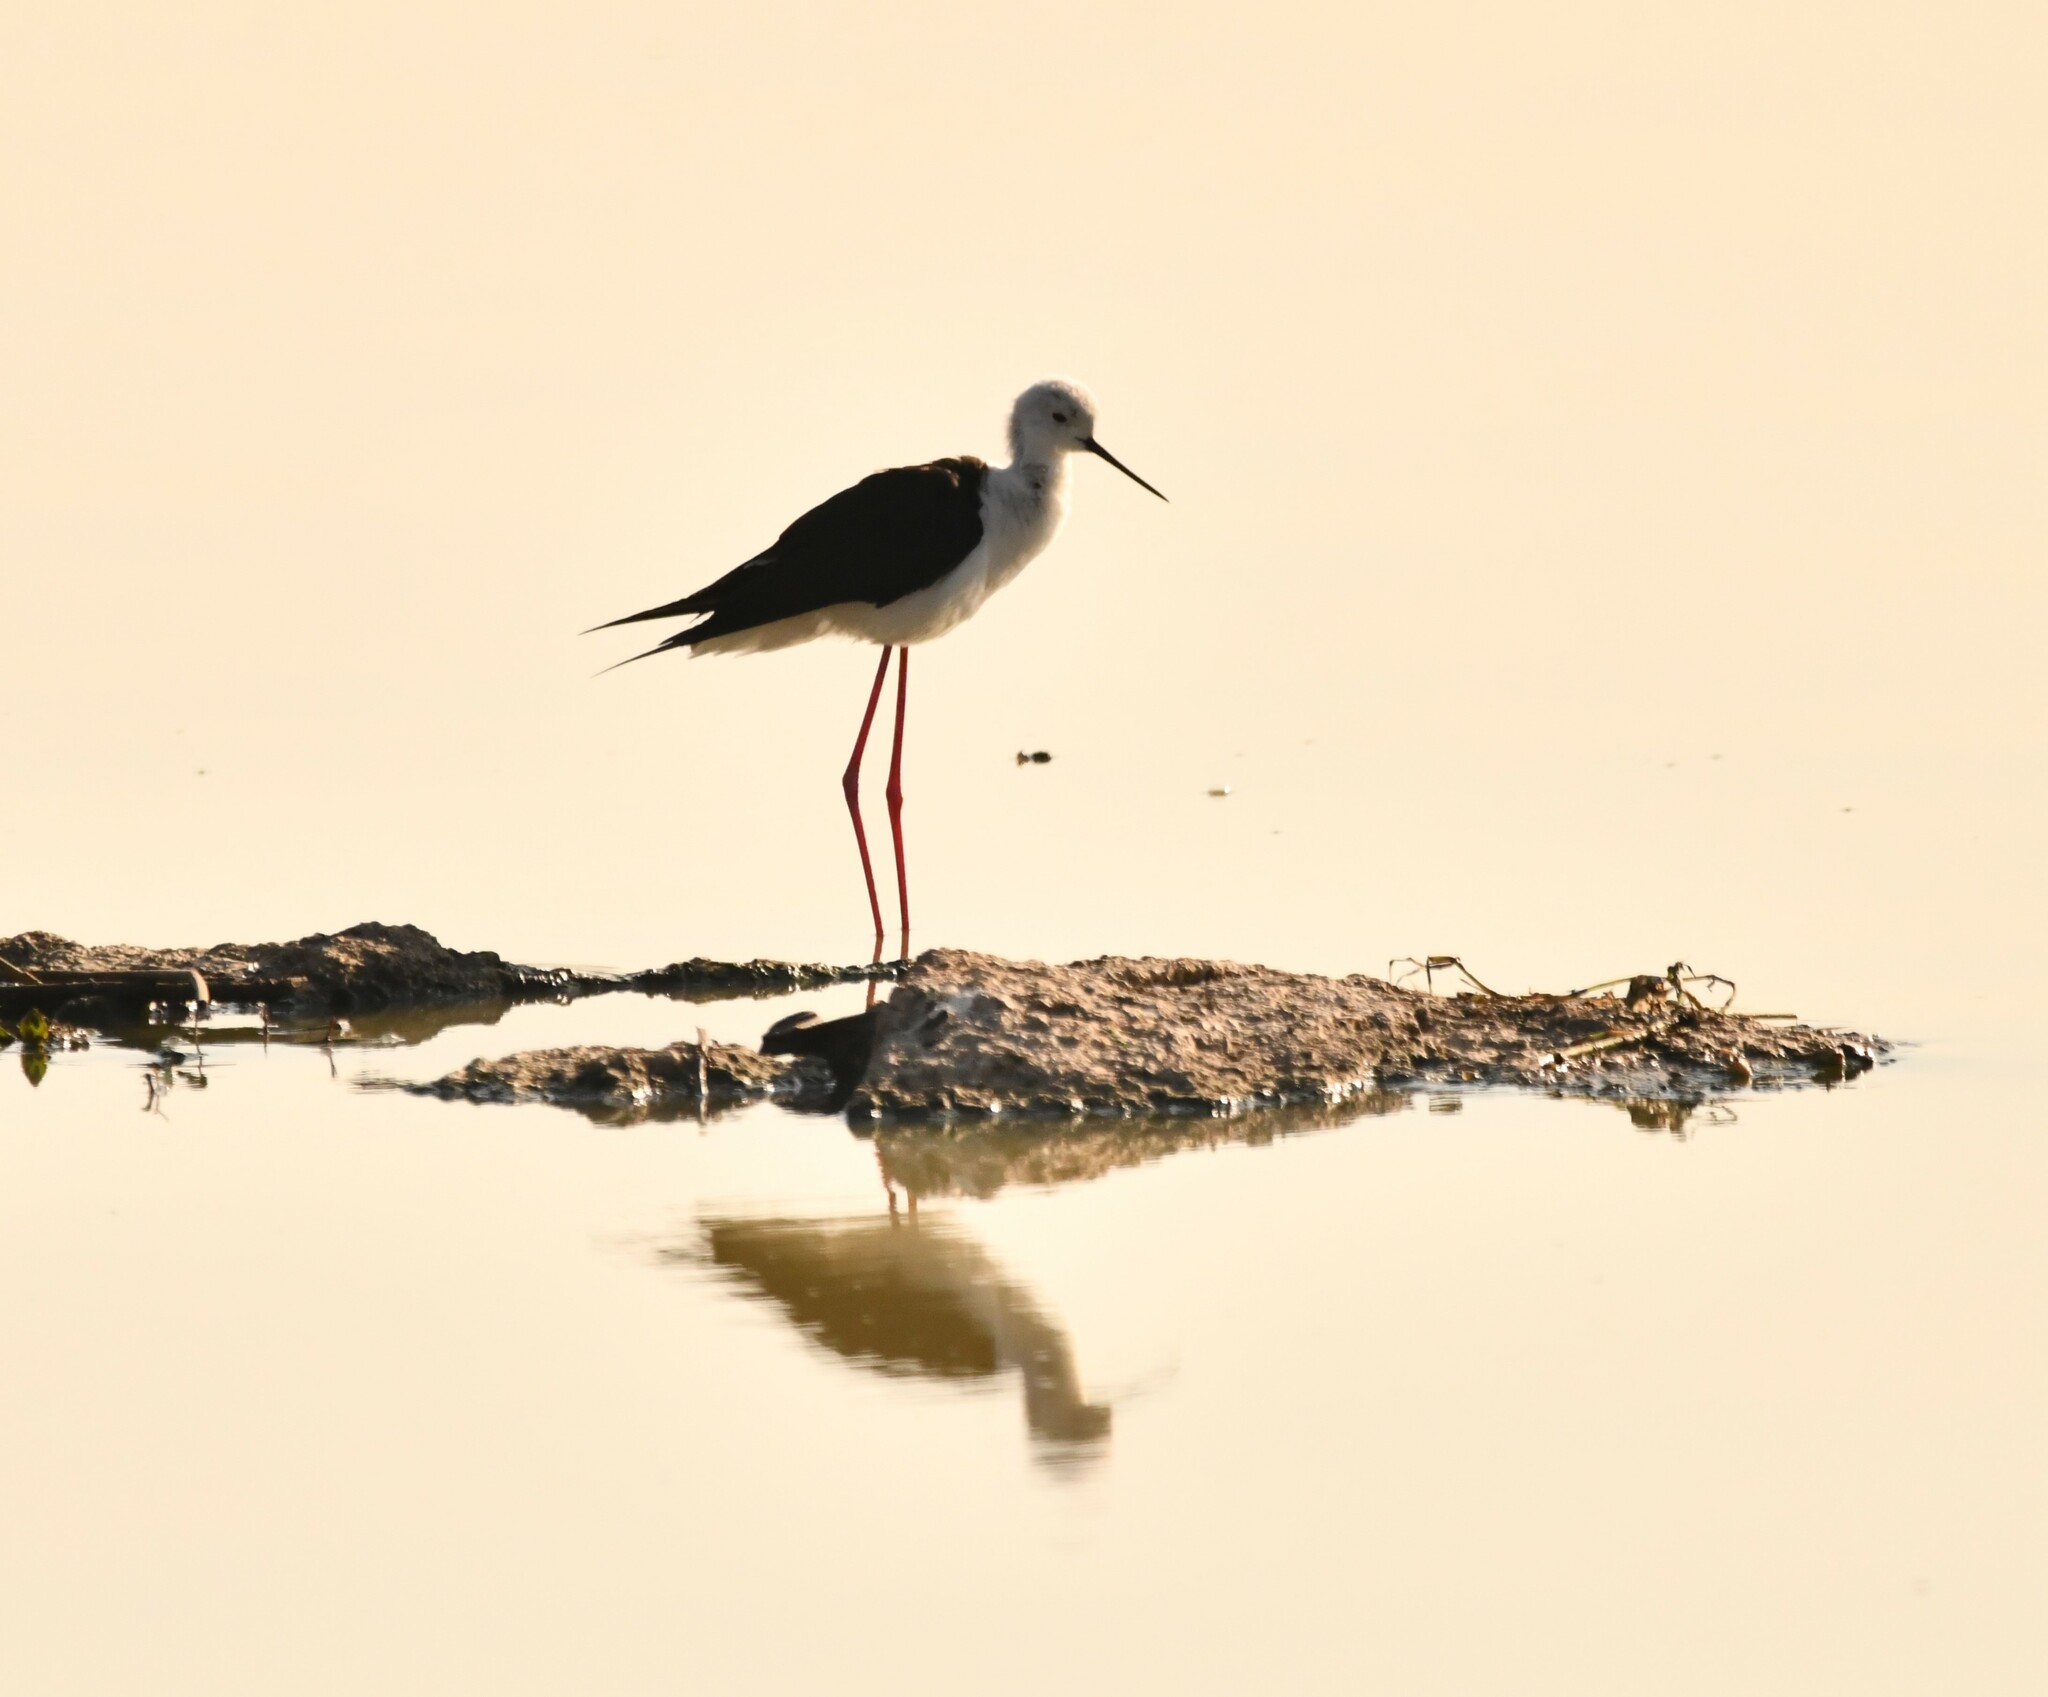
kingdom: Animalia
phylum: Chordata
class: Aves
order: Charadriiformes
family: Recurvirostridae
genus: Himantopus
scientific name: Himantopus himantopus
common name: Black-winged stilt
